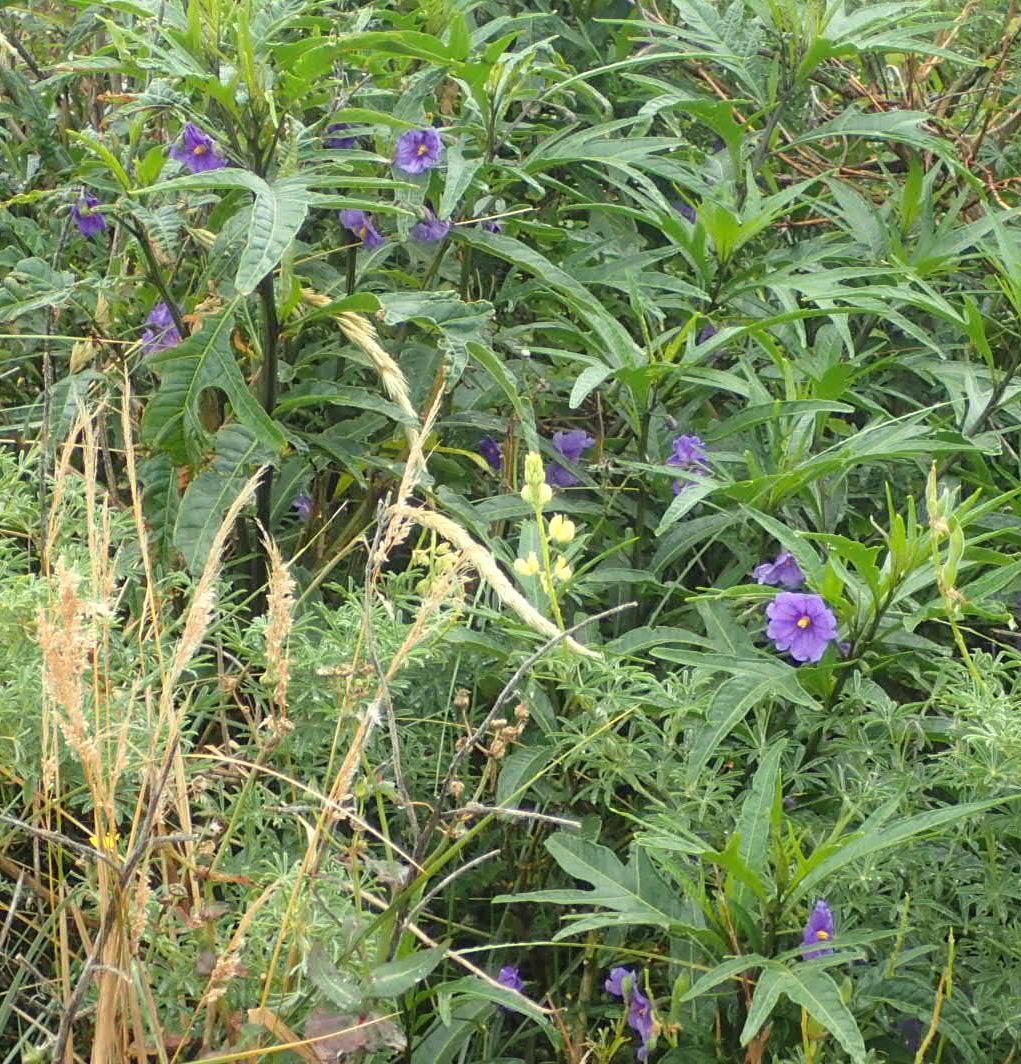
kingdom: Plantae
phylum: Tracheophyta
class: Magnoliopsida
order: Solanales
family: Solanaceae
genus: Solanum
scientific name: Solanum laciniatum
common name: Kangaroo-apple
